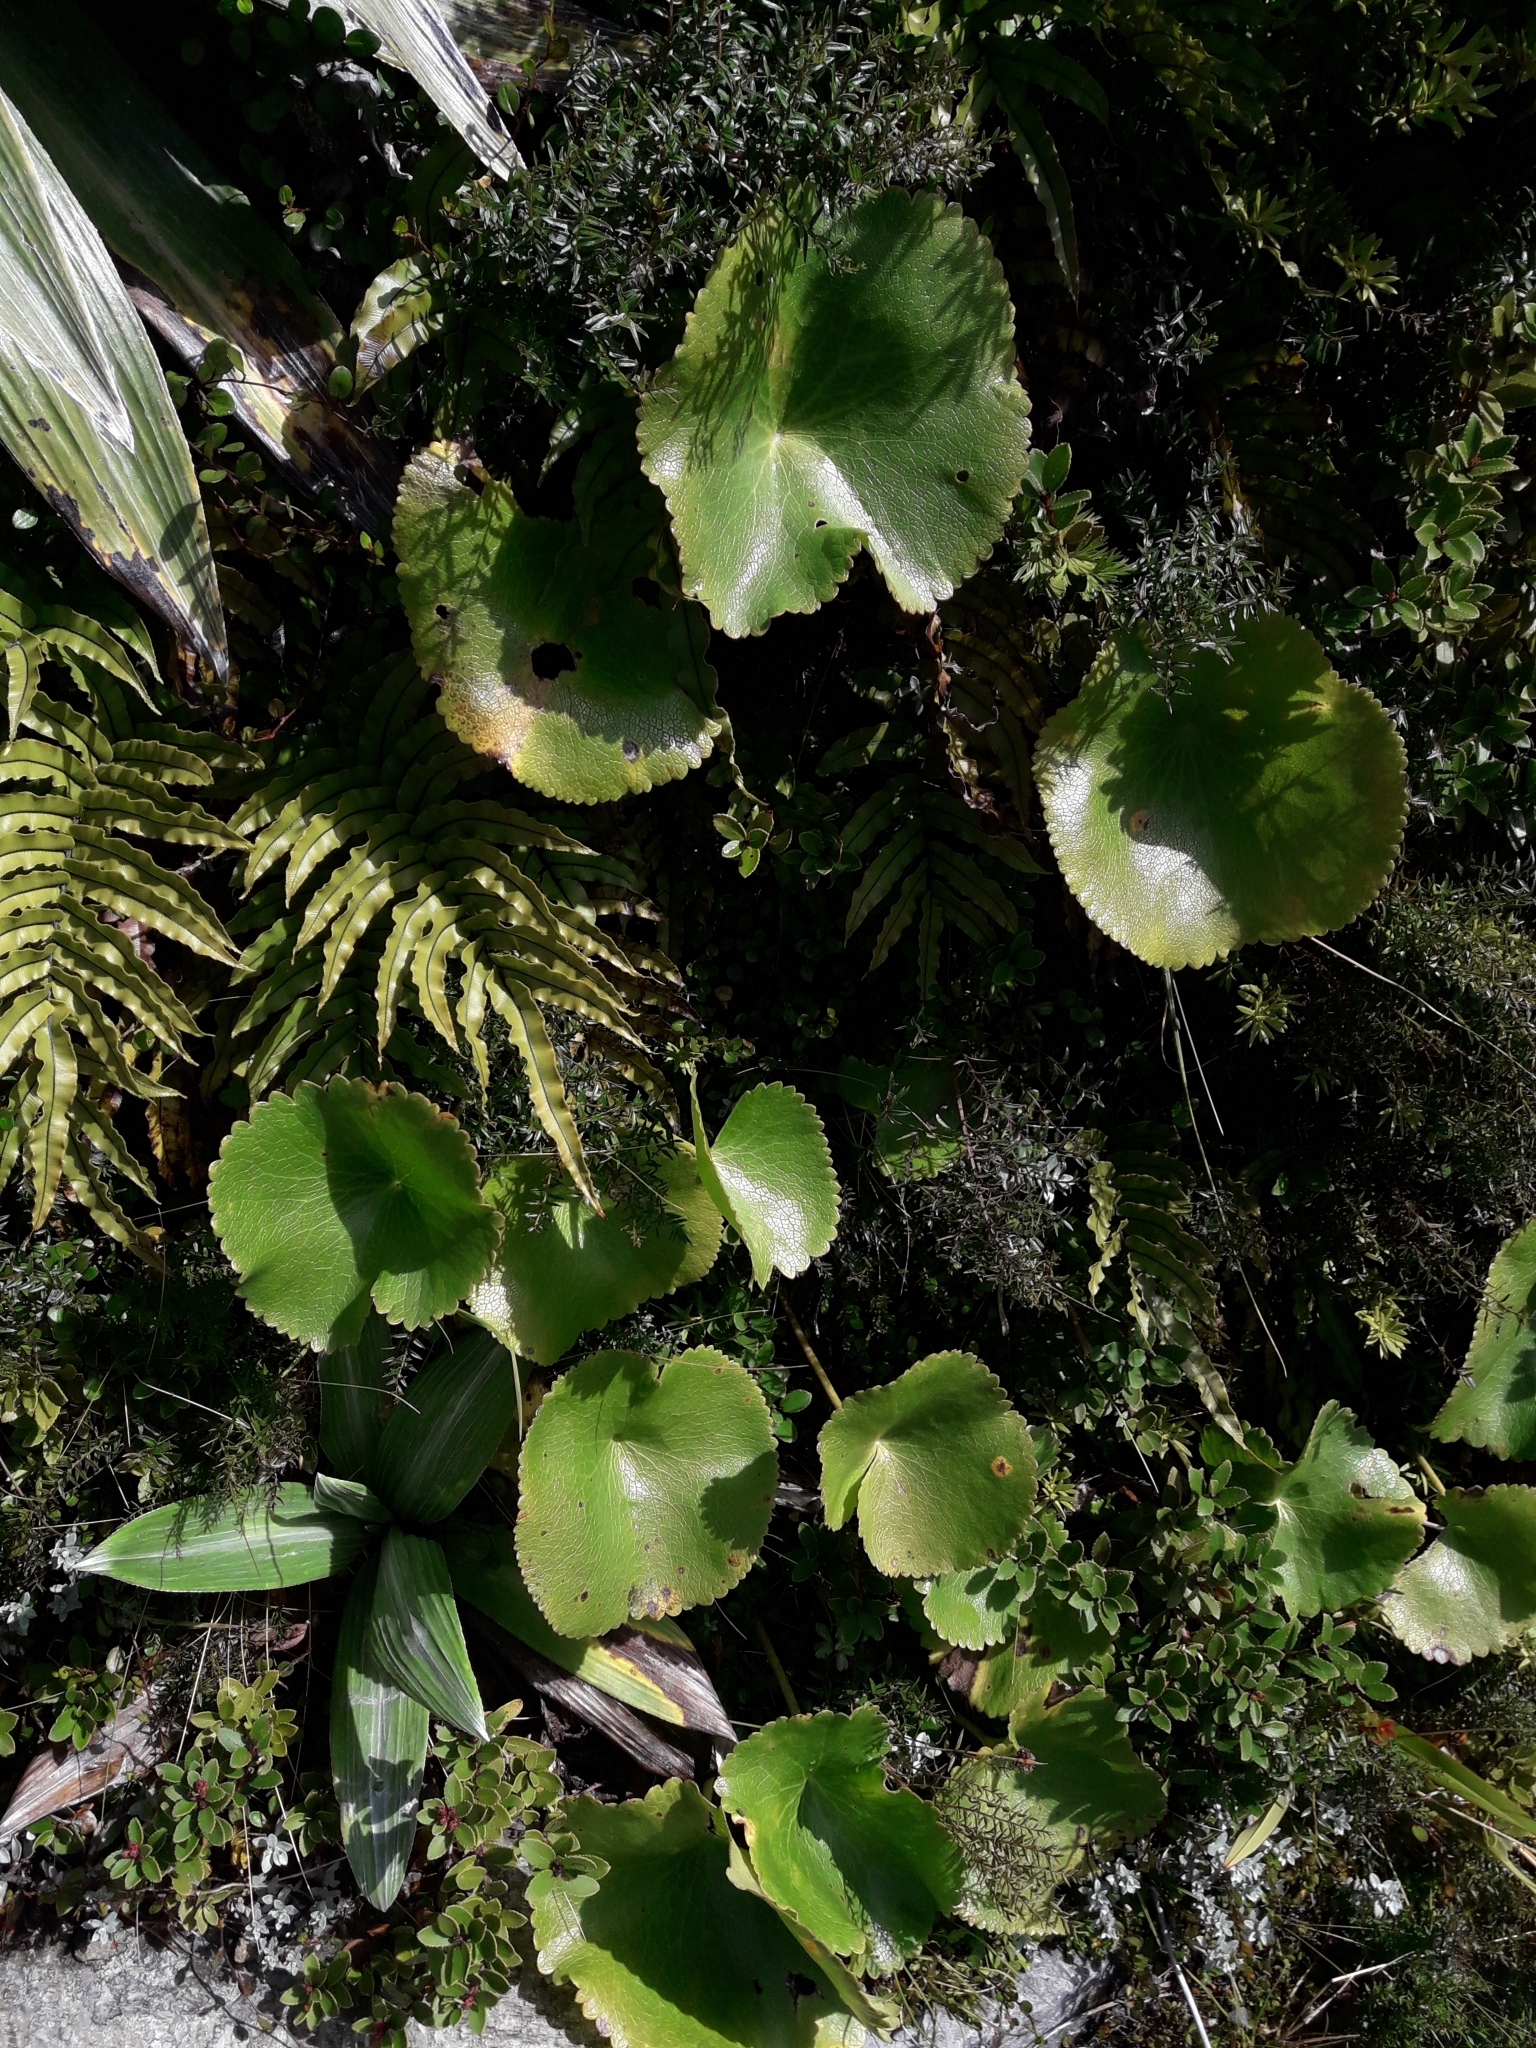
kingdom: Plantae
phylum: Tracheophyta
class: Magnoliopsida
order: Ranunculales
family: Ranunculaceae
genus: Ranunculus
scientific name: Ranunculus lyallii
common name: Mountain-lily
